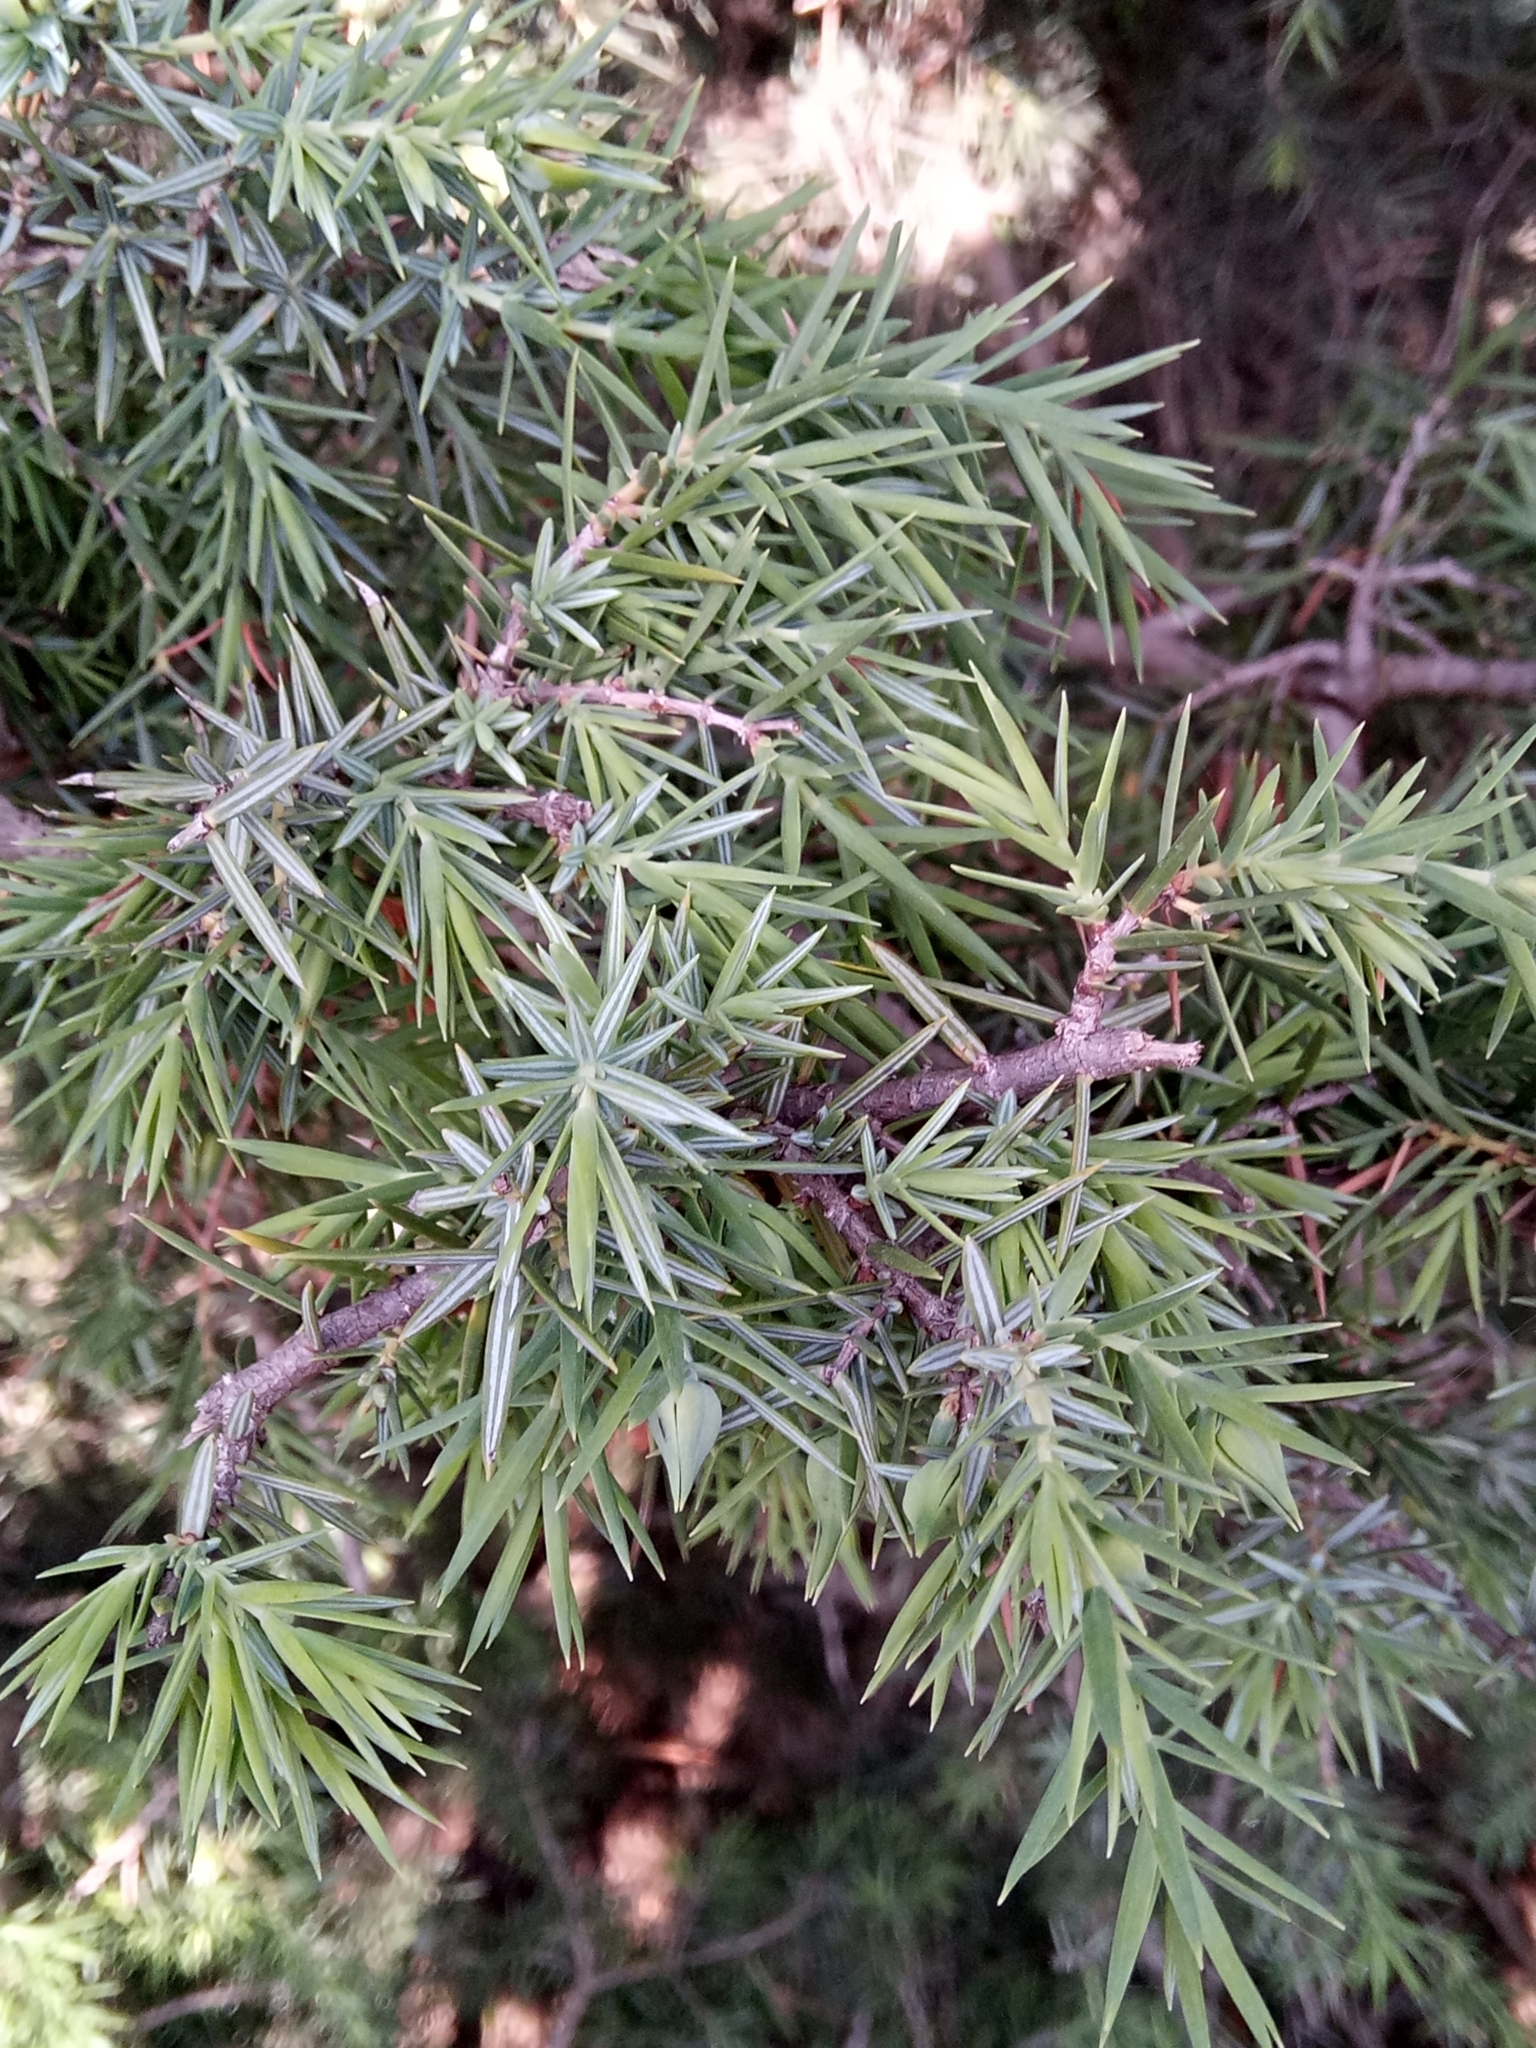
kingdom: Plantae
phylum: Tracheophyta
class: Pinopsida
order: Pinales
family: Cupressaceae
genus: Juniperus
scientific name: Juniperus oxycedrus
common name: Prickly juniper
